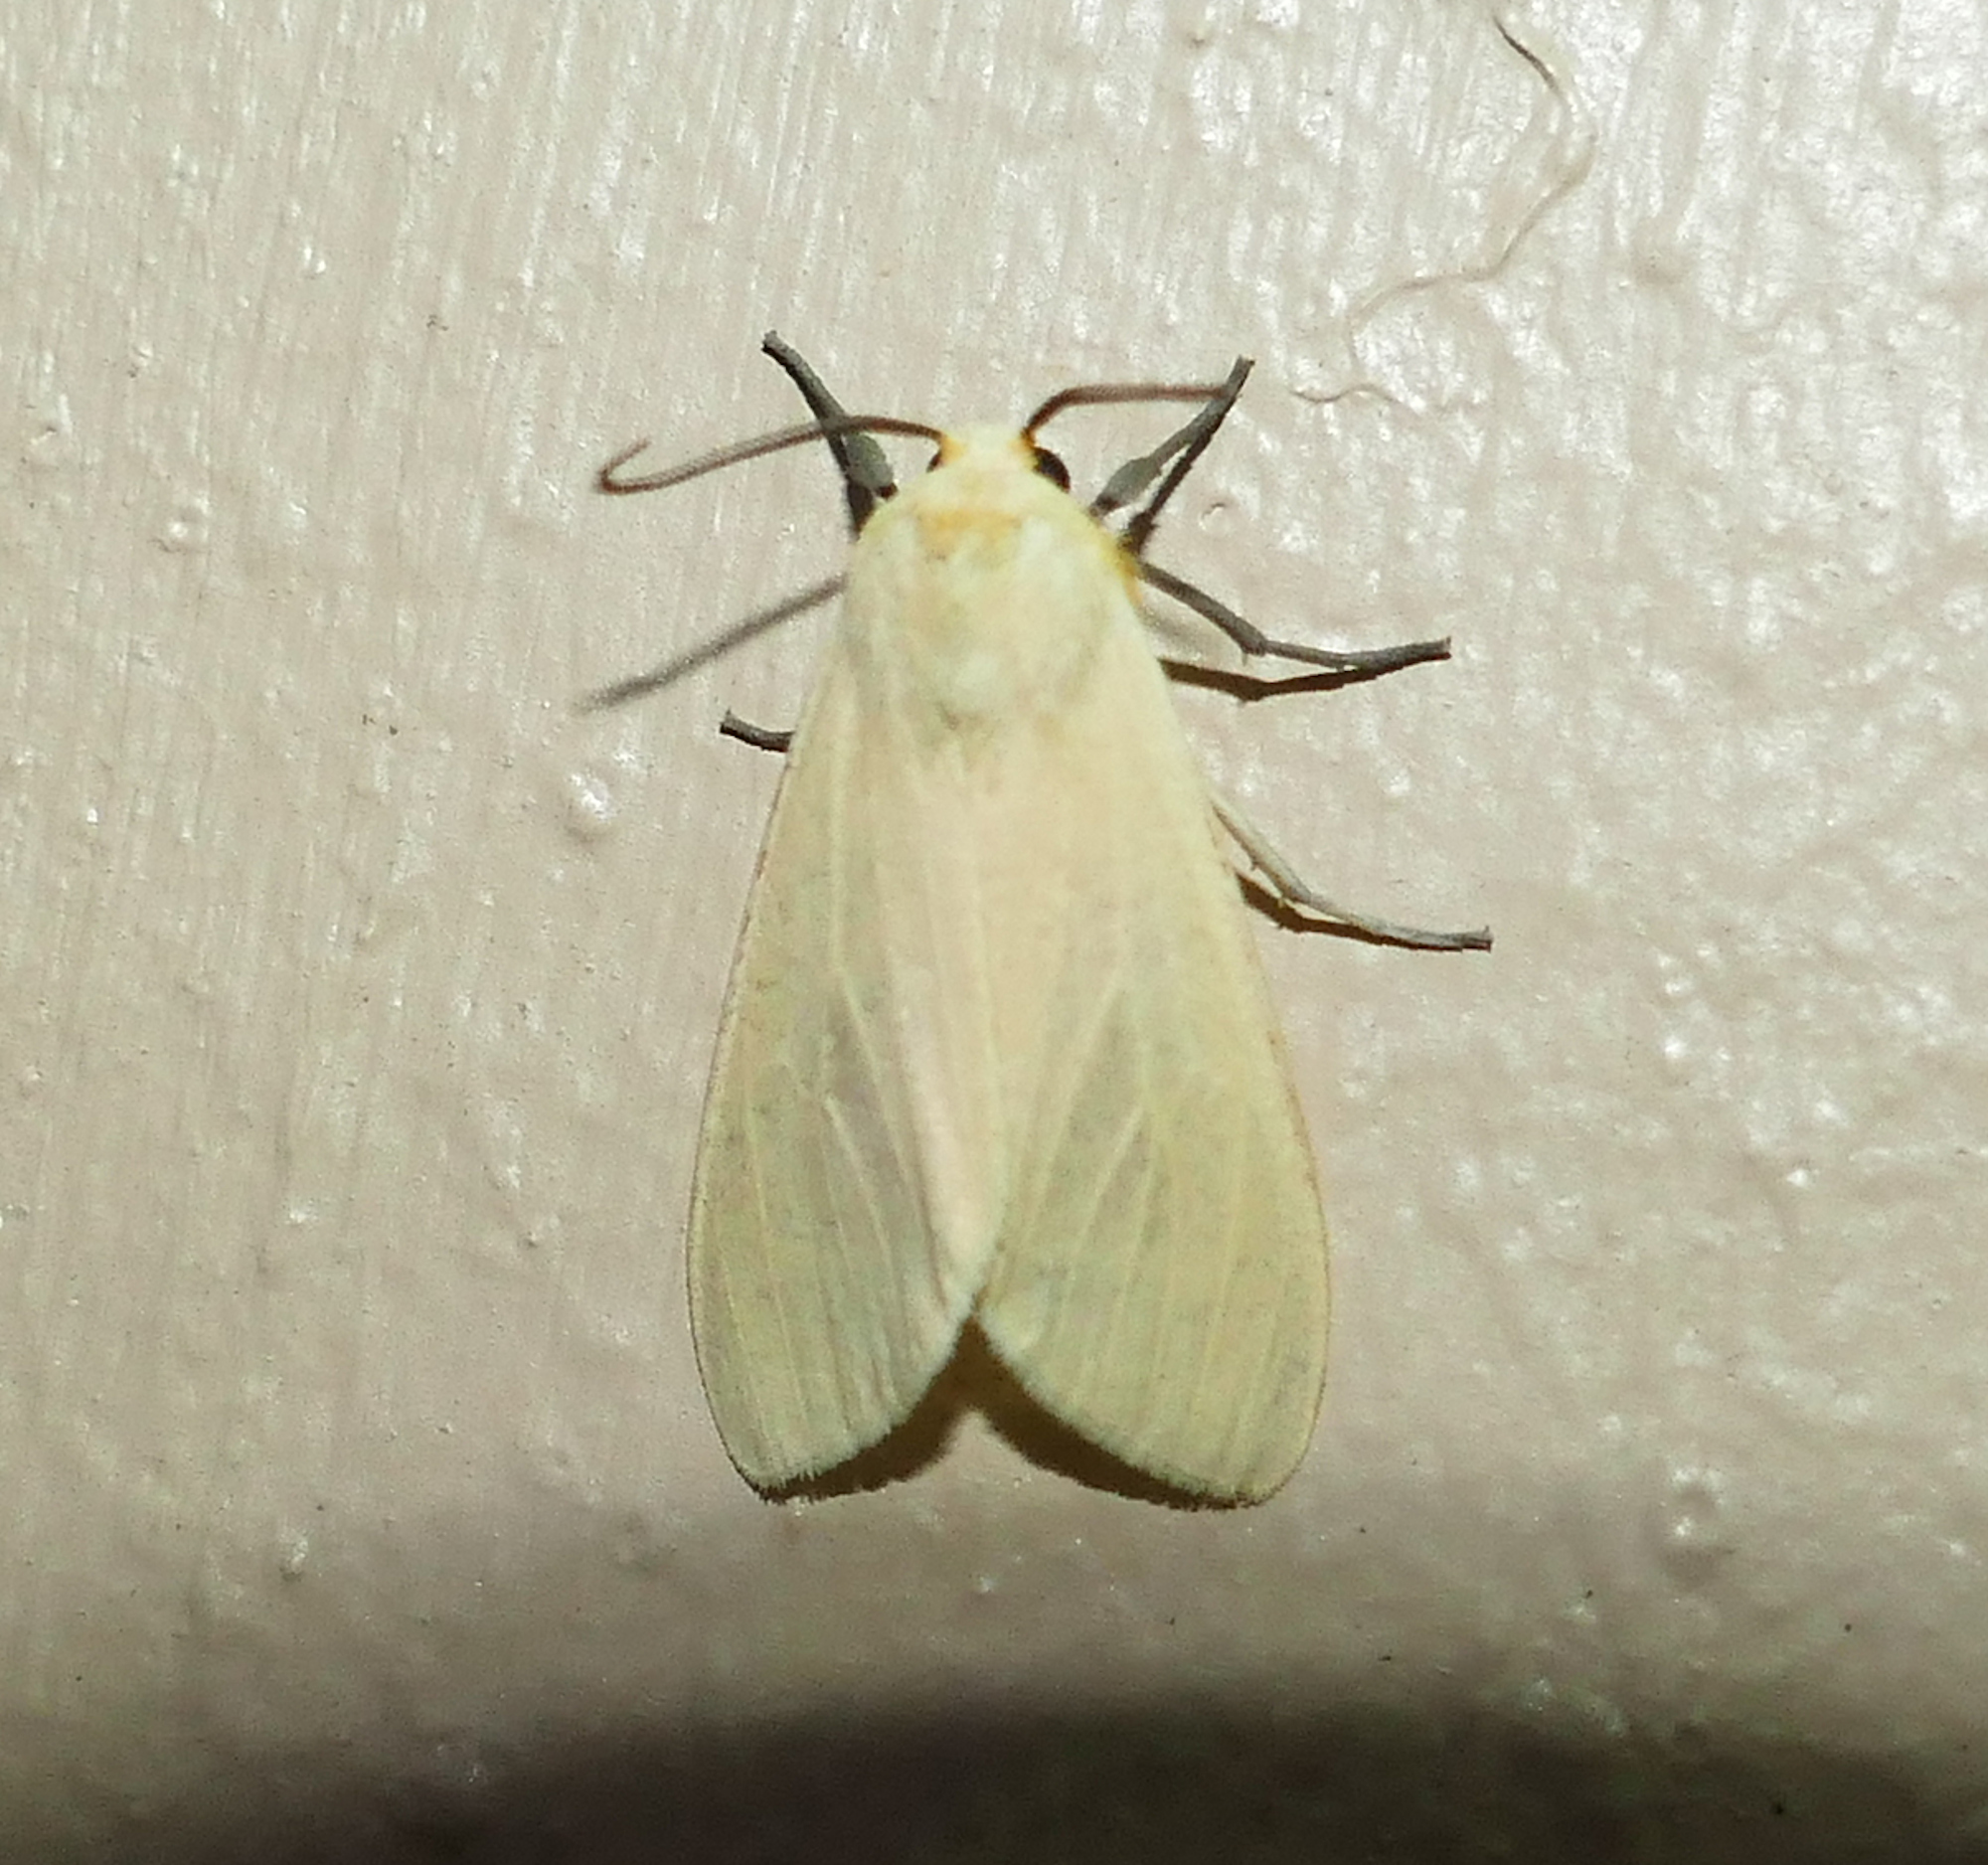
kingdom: Animalia
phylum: Arthropoda
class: Insecta
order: Lepidoptera
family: Erebidae
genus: Pareuchaetes
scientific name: Pareuchaetes insulata
